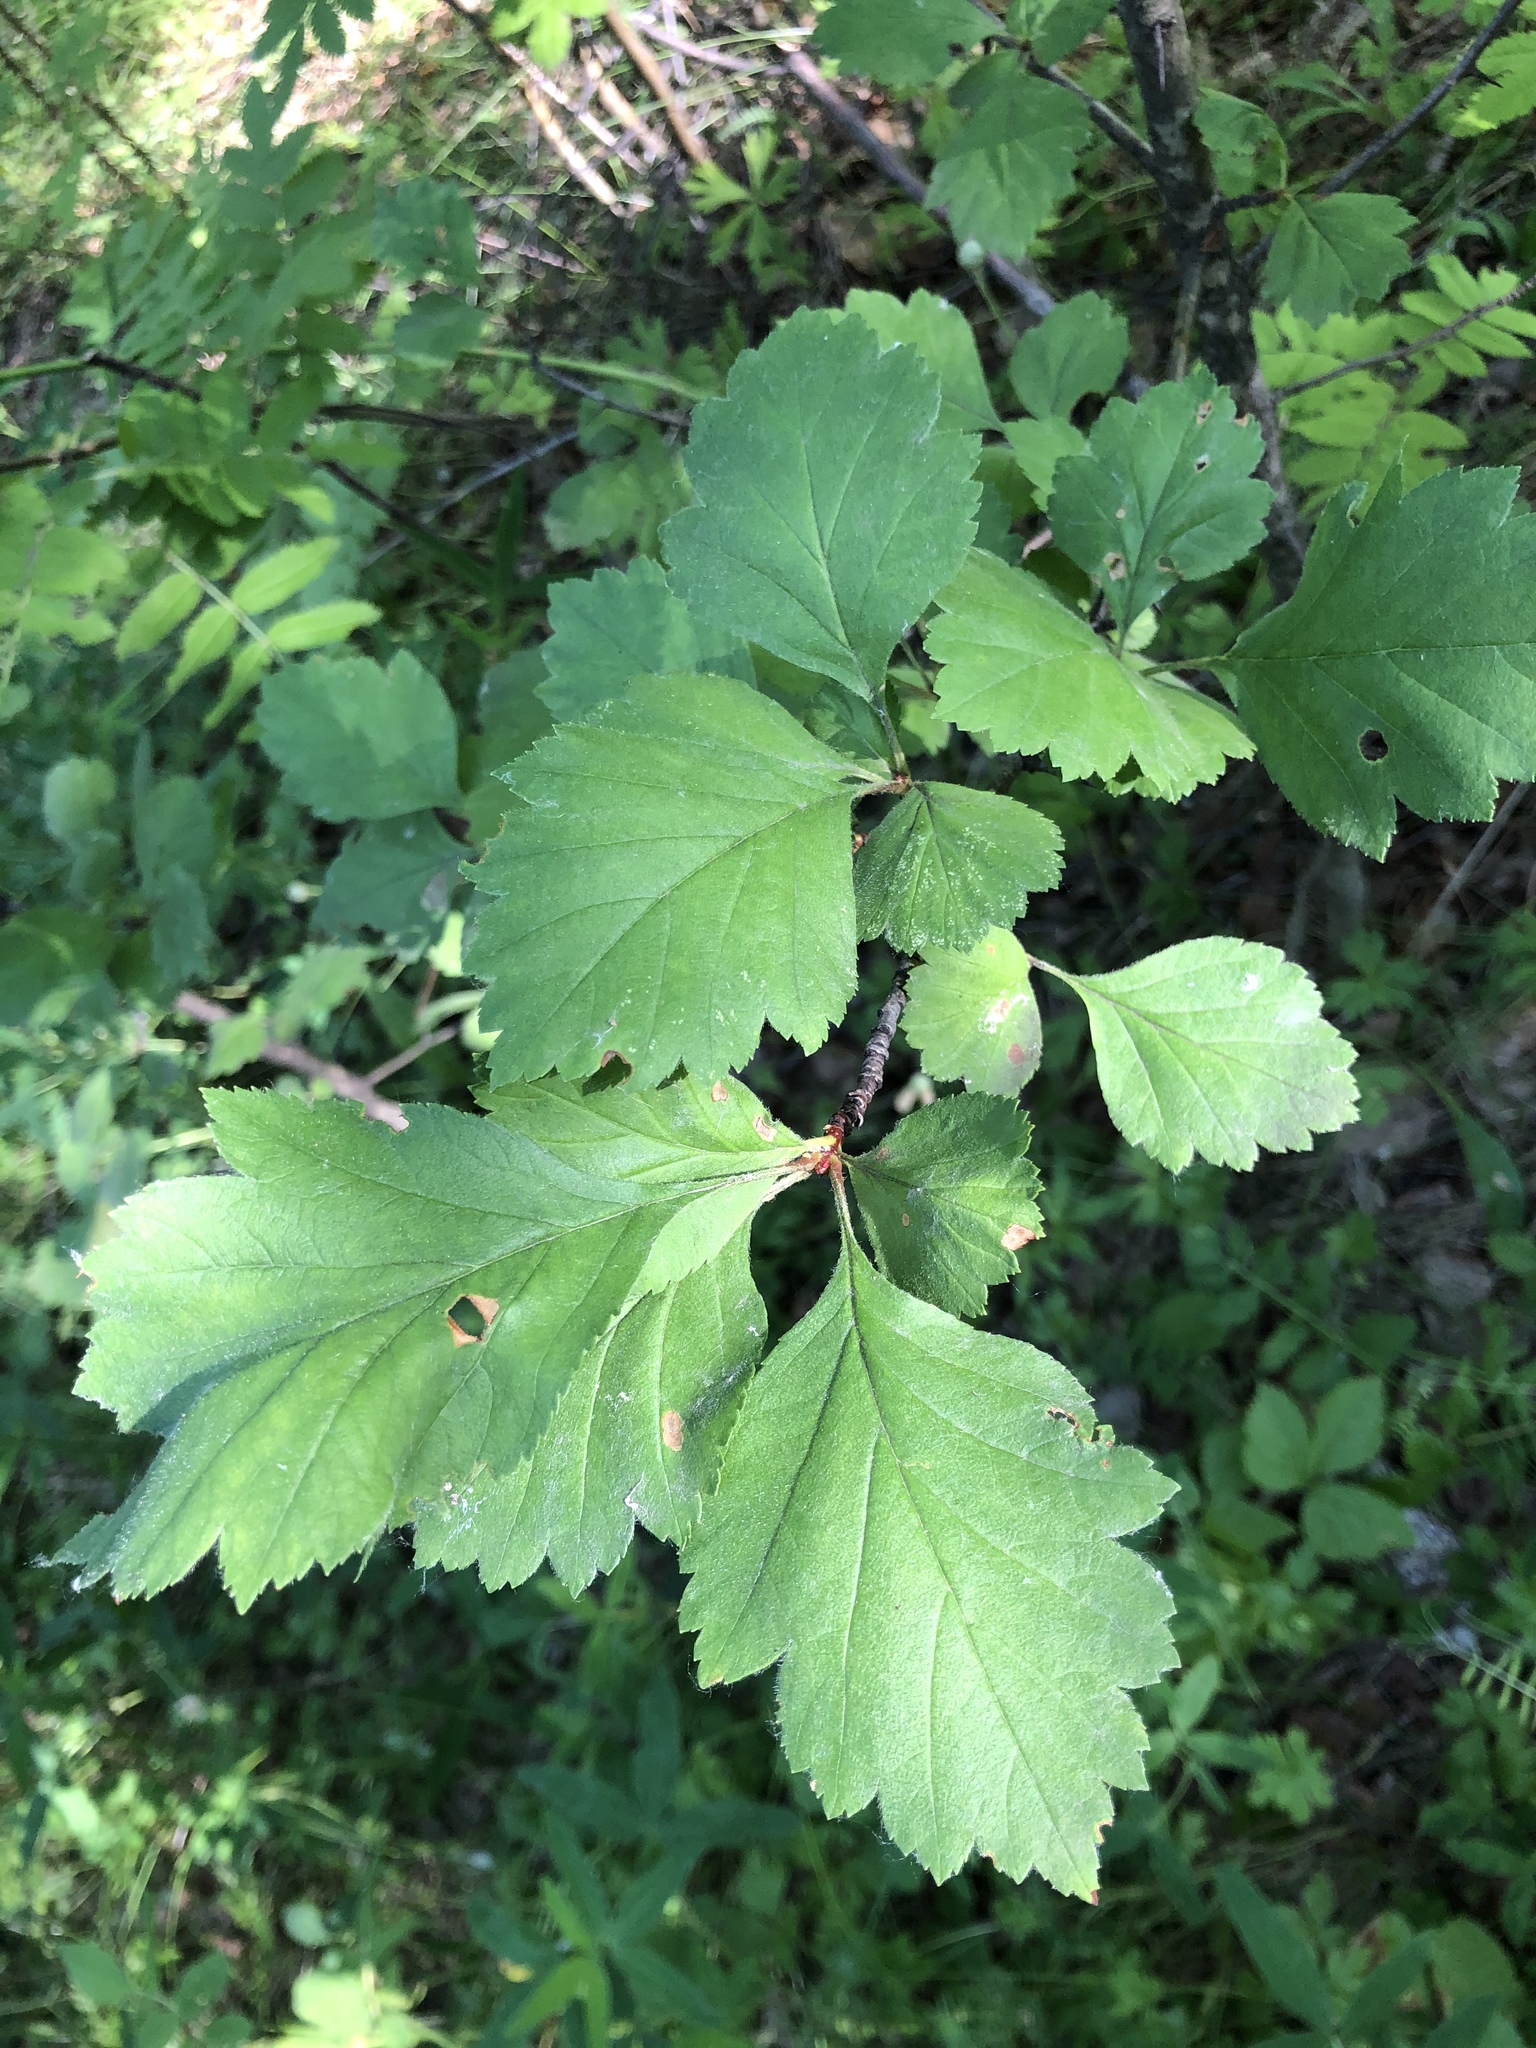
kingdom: Plantae
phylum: Tracheophyta
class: Magnoliopsida
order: Rosales
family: Rosaceae
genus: Crataegus
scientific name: Crataegus sanguinea
